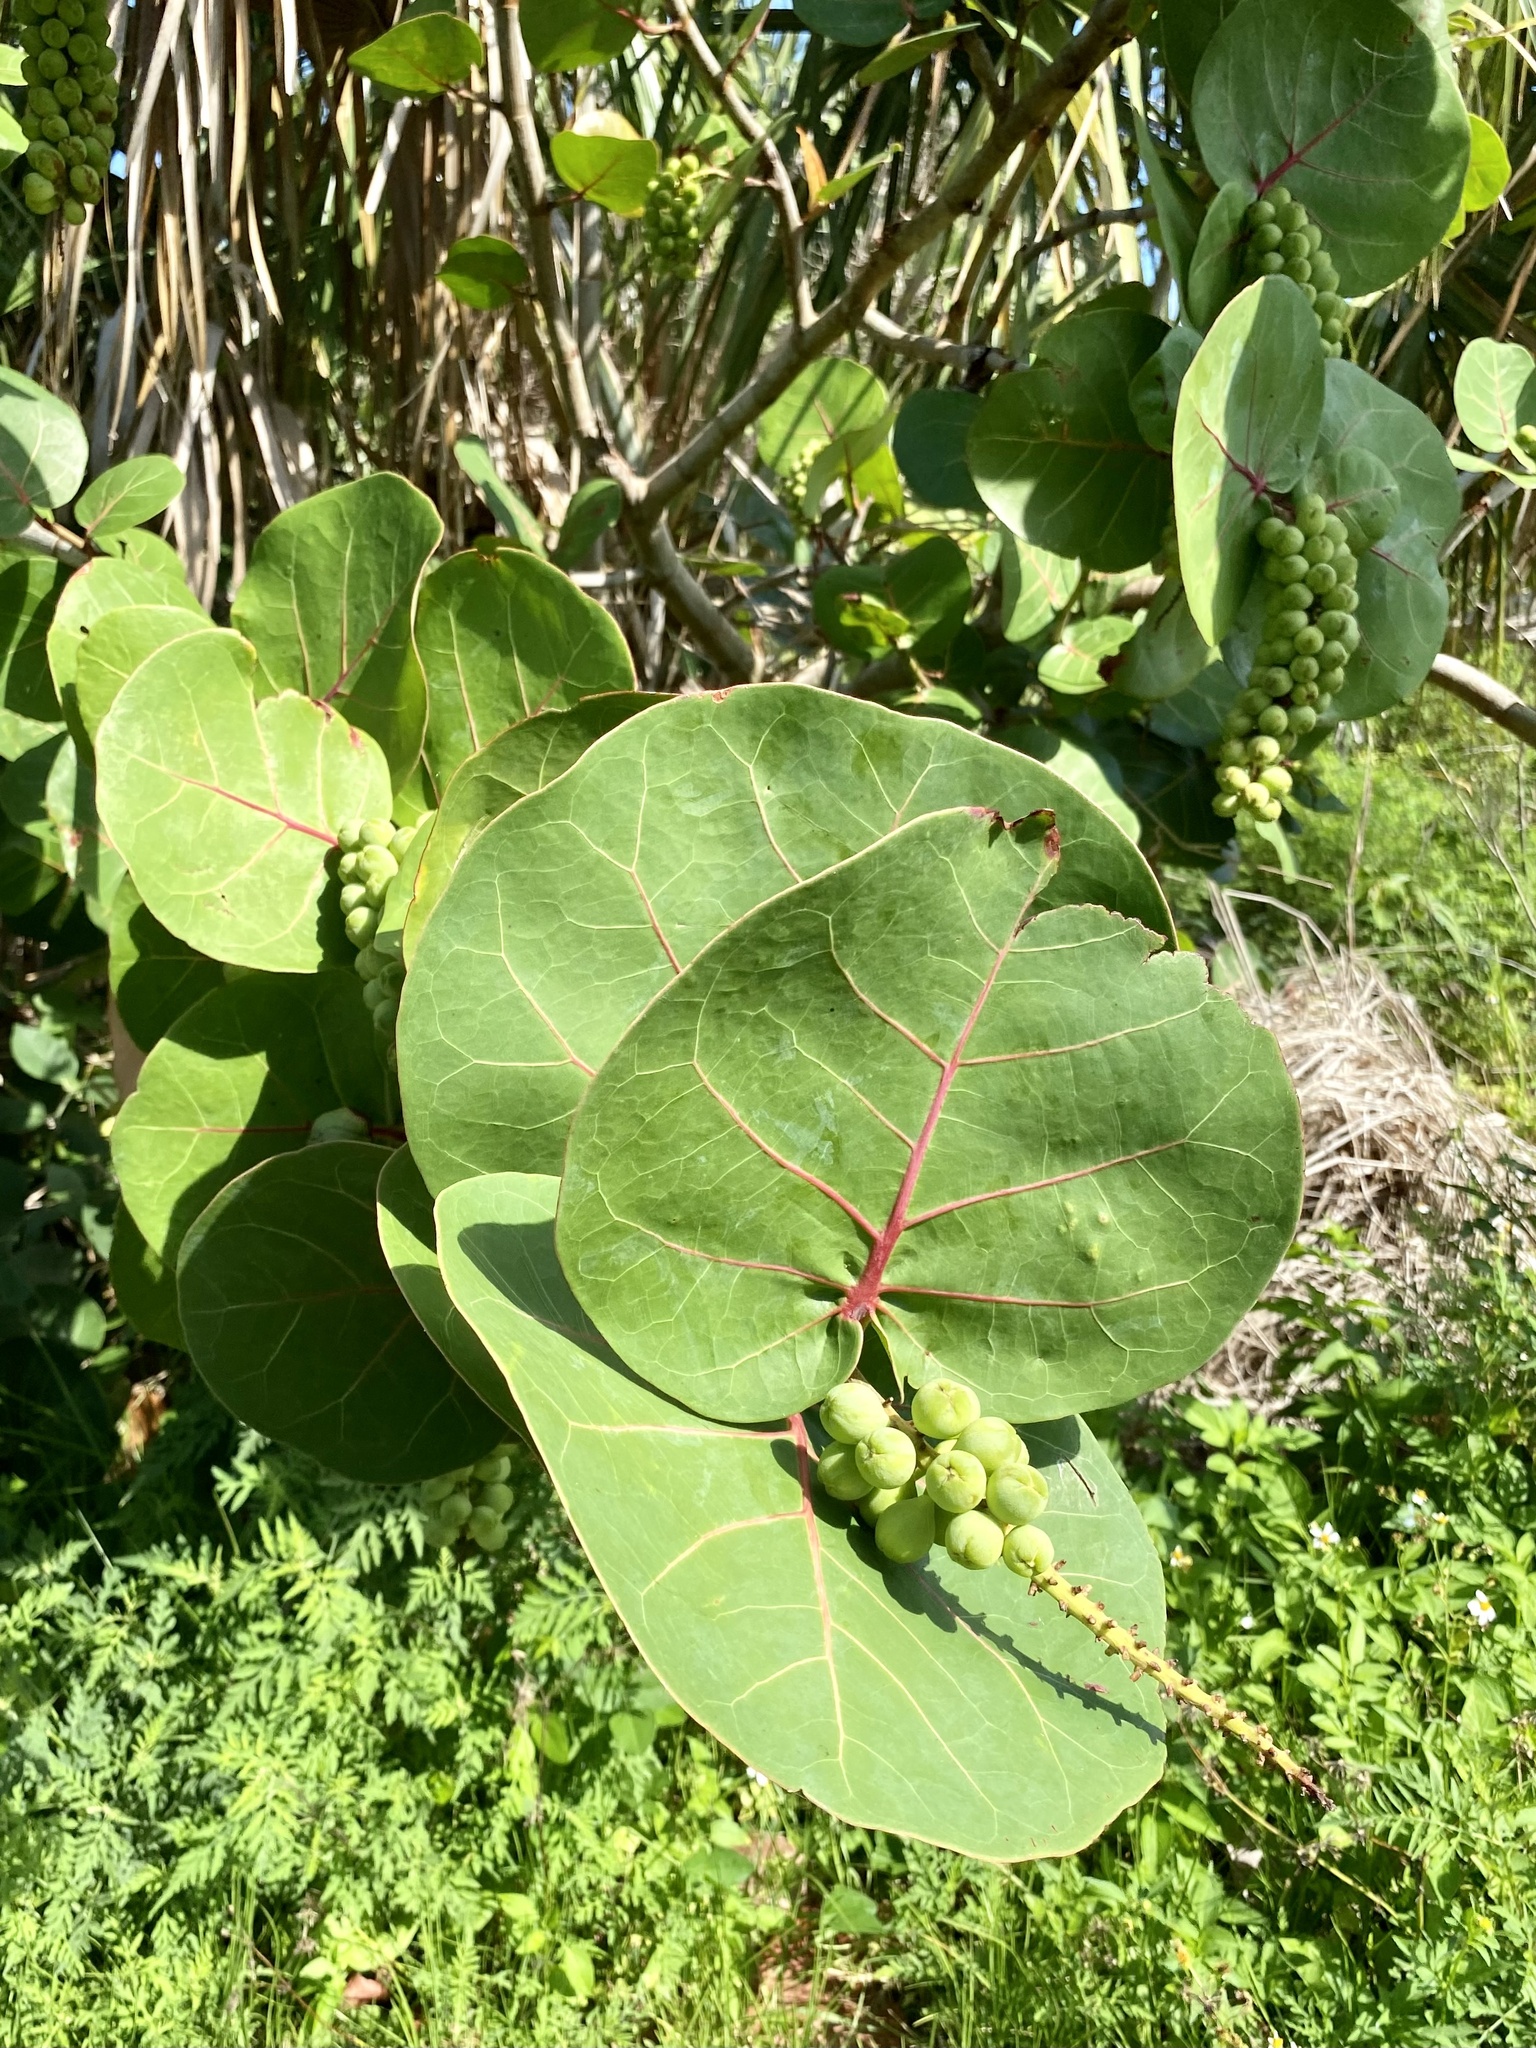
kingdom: Plantae
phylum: Tracheophyta
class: Magnoliopsida
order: Caryophyllales
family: Polygonaceae
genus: Coccoloba
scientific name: Coccoloba uvifera
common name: Seagrape
